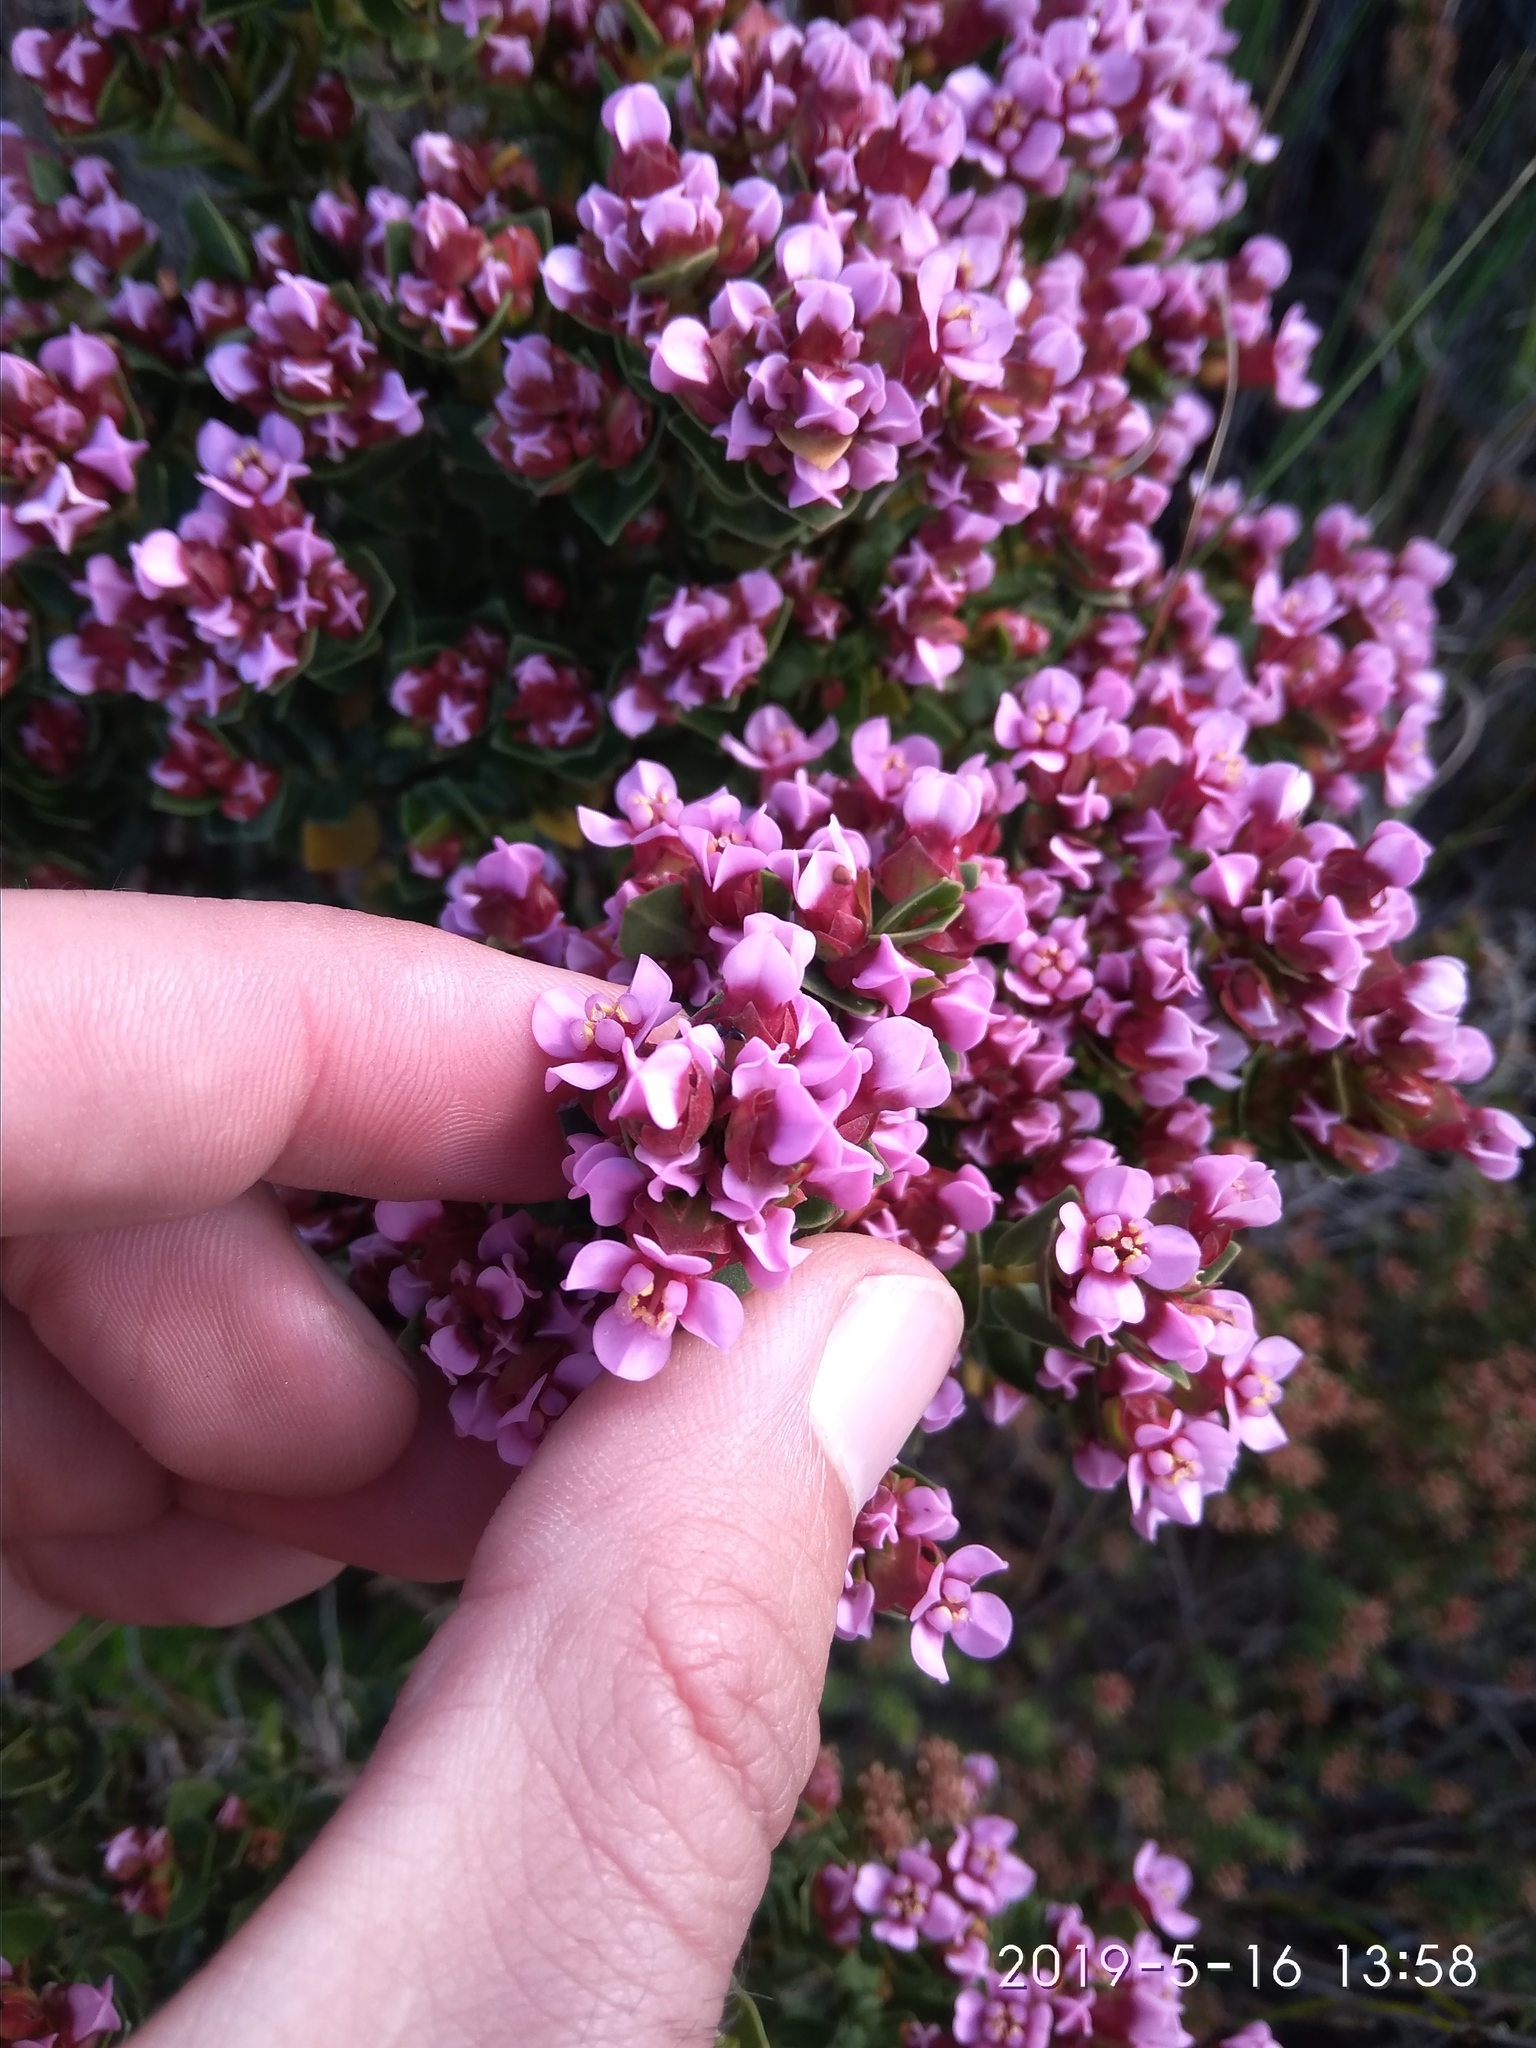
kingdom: Plantae
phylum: Tracheophyta
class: Magnoliopsida
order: Myrtales
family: Penaeaceae
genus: Brachysiphon
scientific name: Brachysiphon fucatus
